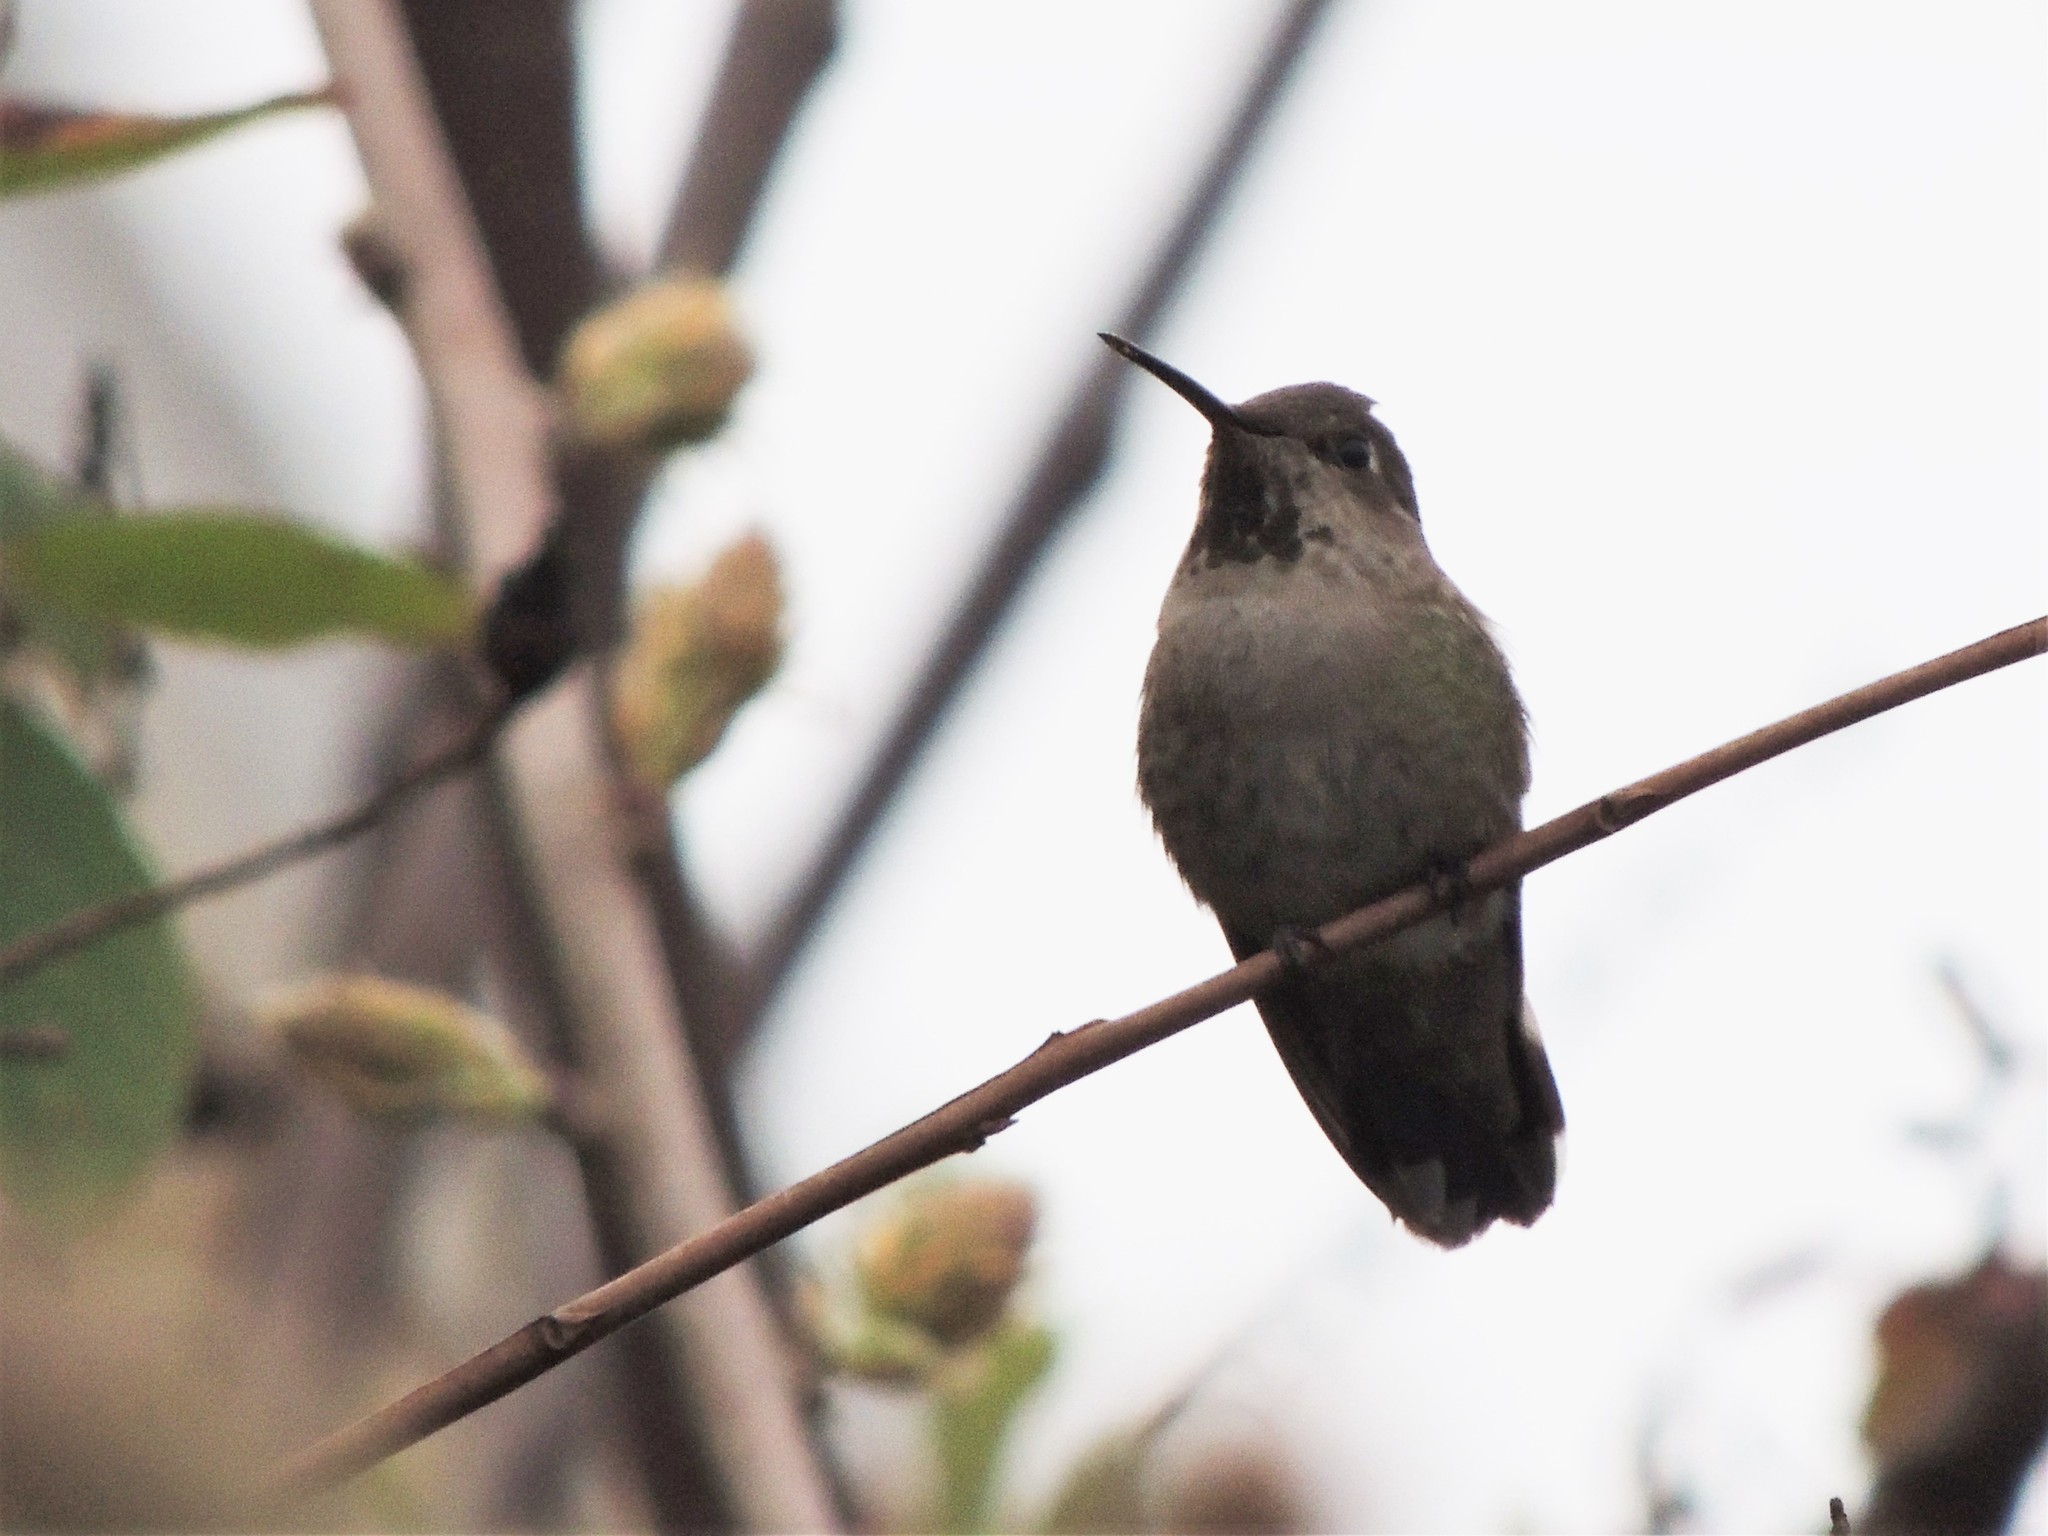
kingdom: Animalia
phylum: Chordata
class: Aves
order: Apodiformes
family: Trochilidae
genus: Calypte
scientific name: Calypte anna
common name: Anna's hummingbird
